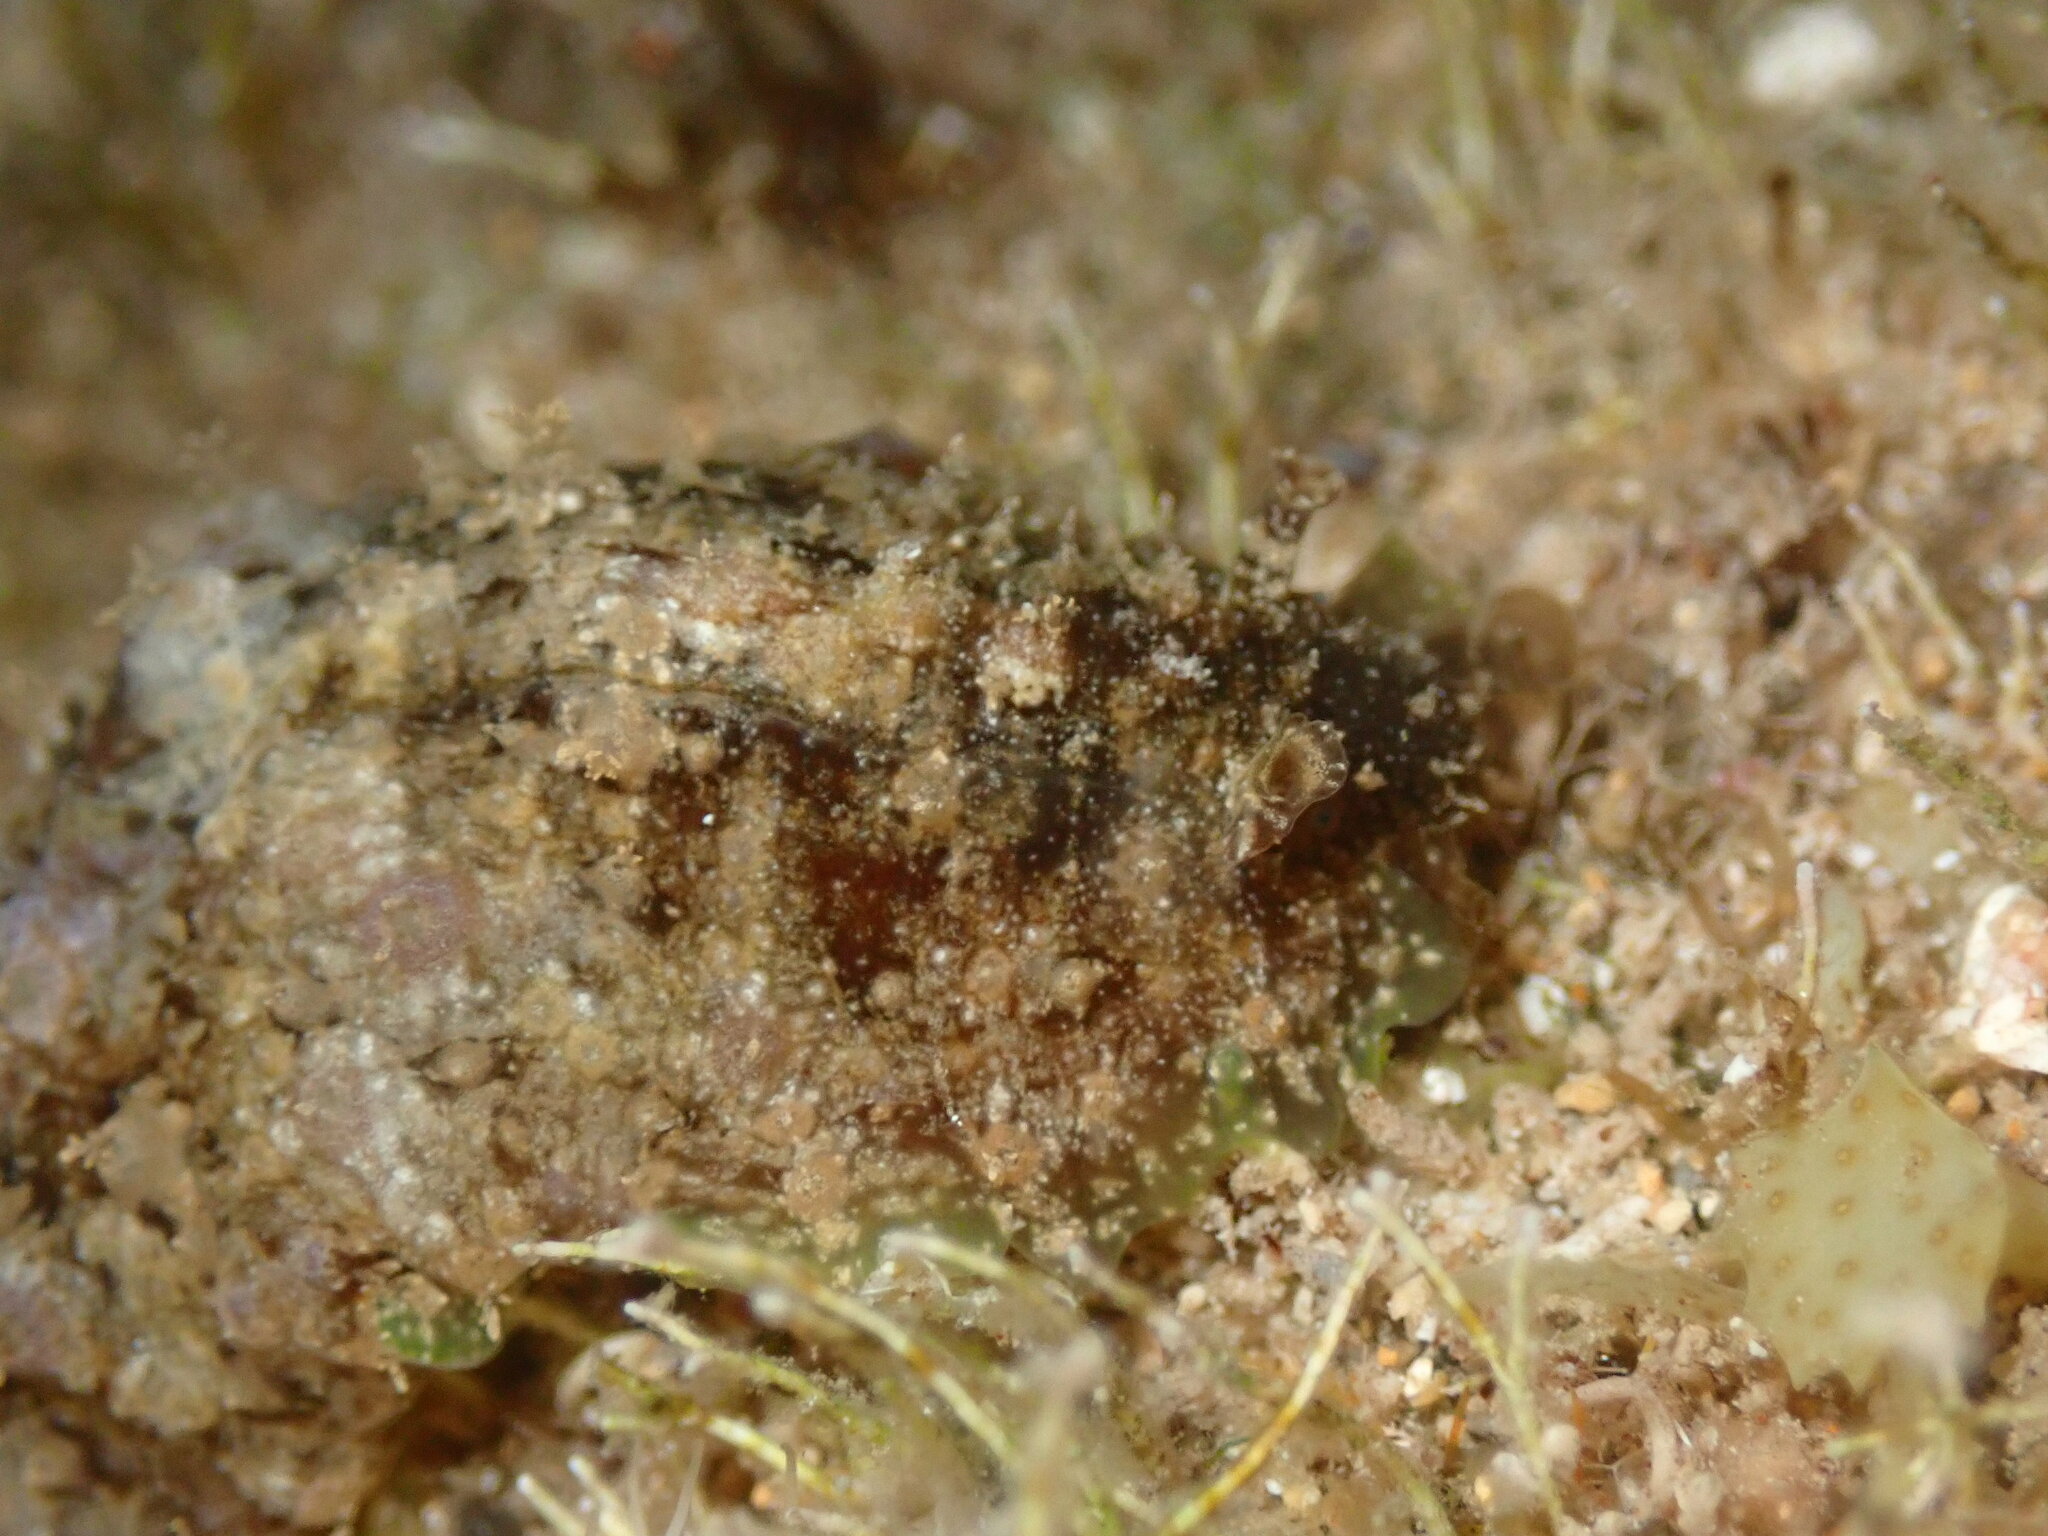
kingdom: Animalia
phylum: Mollusca
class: Gastropoda
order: Aplysiida
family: Aplysiidae
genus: Dolabrifera
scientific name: Dolabrifera dolabrifera
